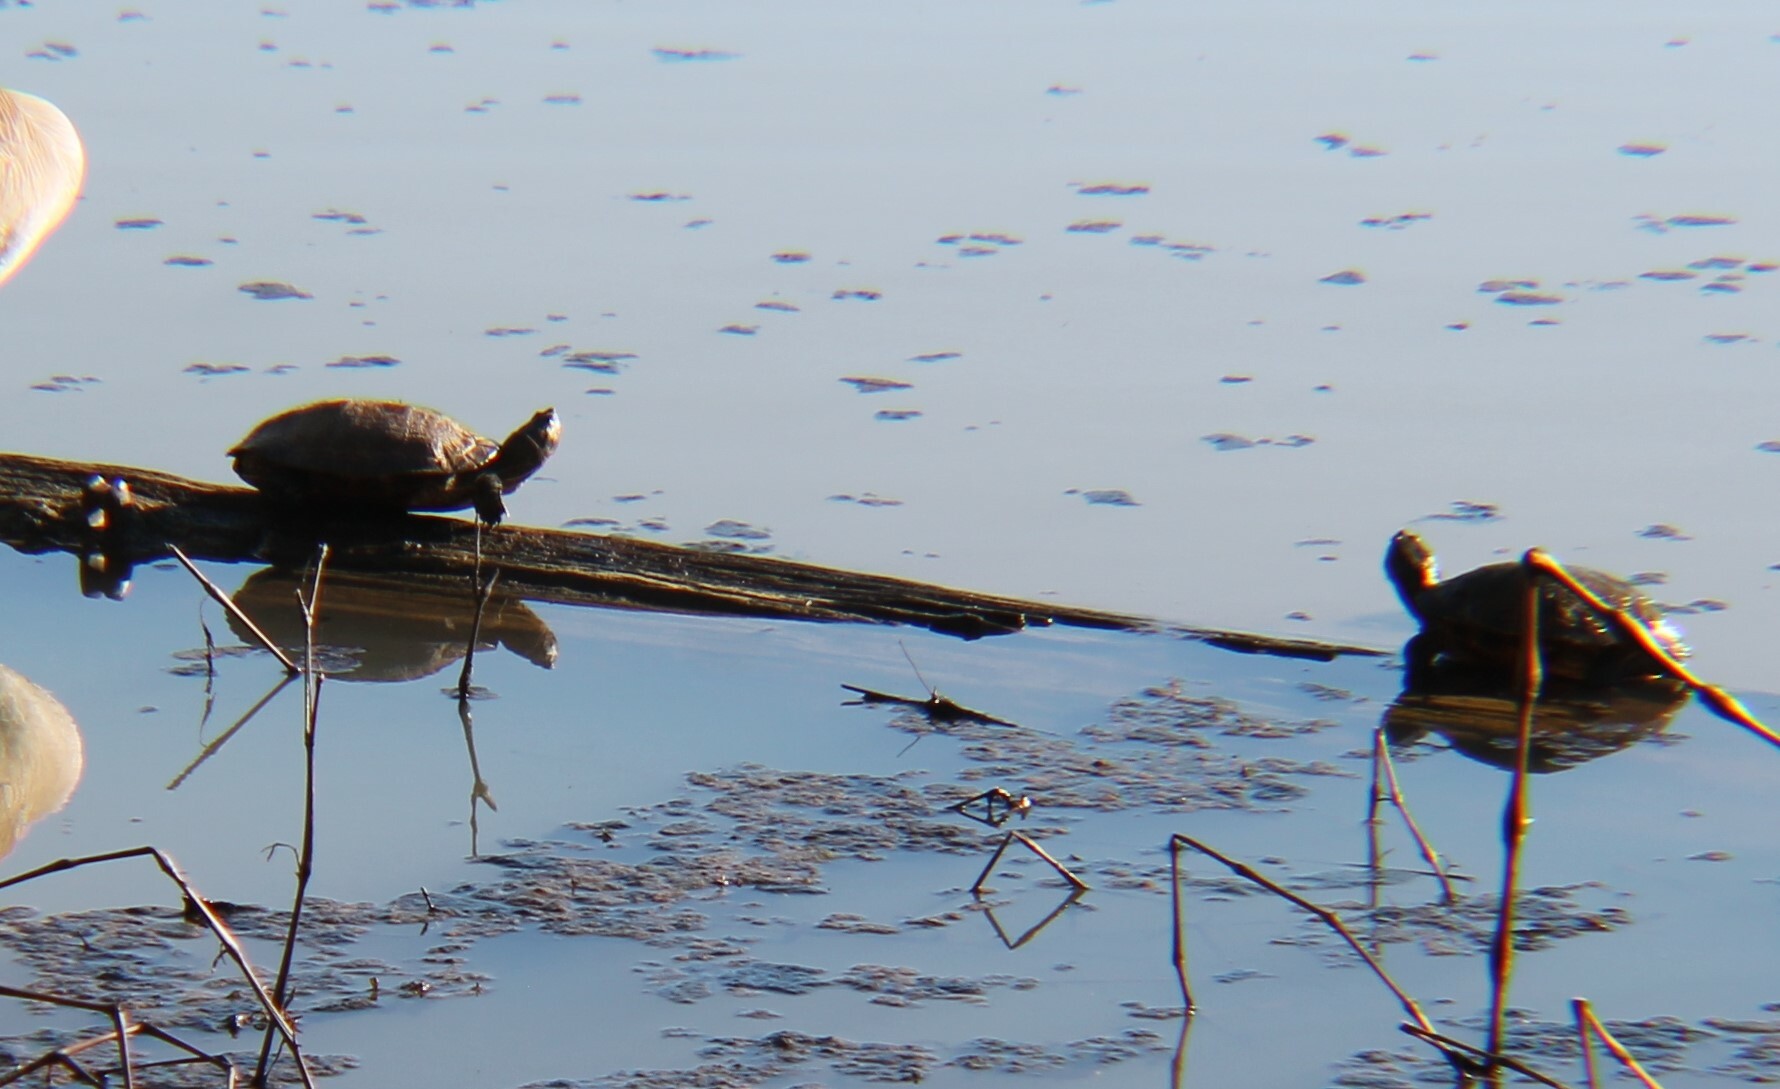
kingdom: Animalia
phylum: Chordata
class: Testudines
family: Emydidae
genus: Trachemys
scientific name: Trachemys scripta
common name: Slider
